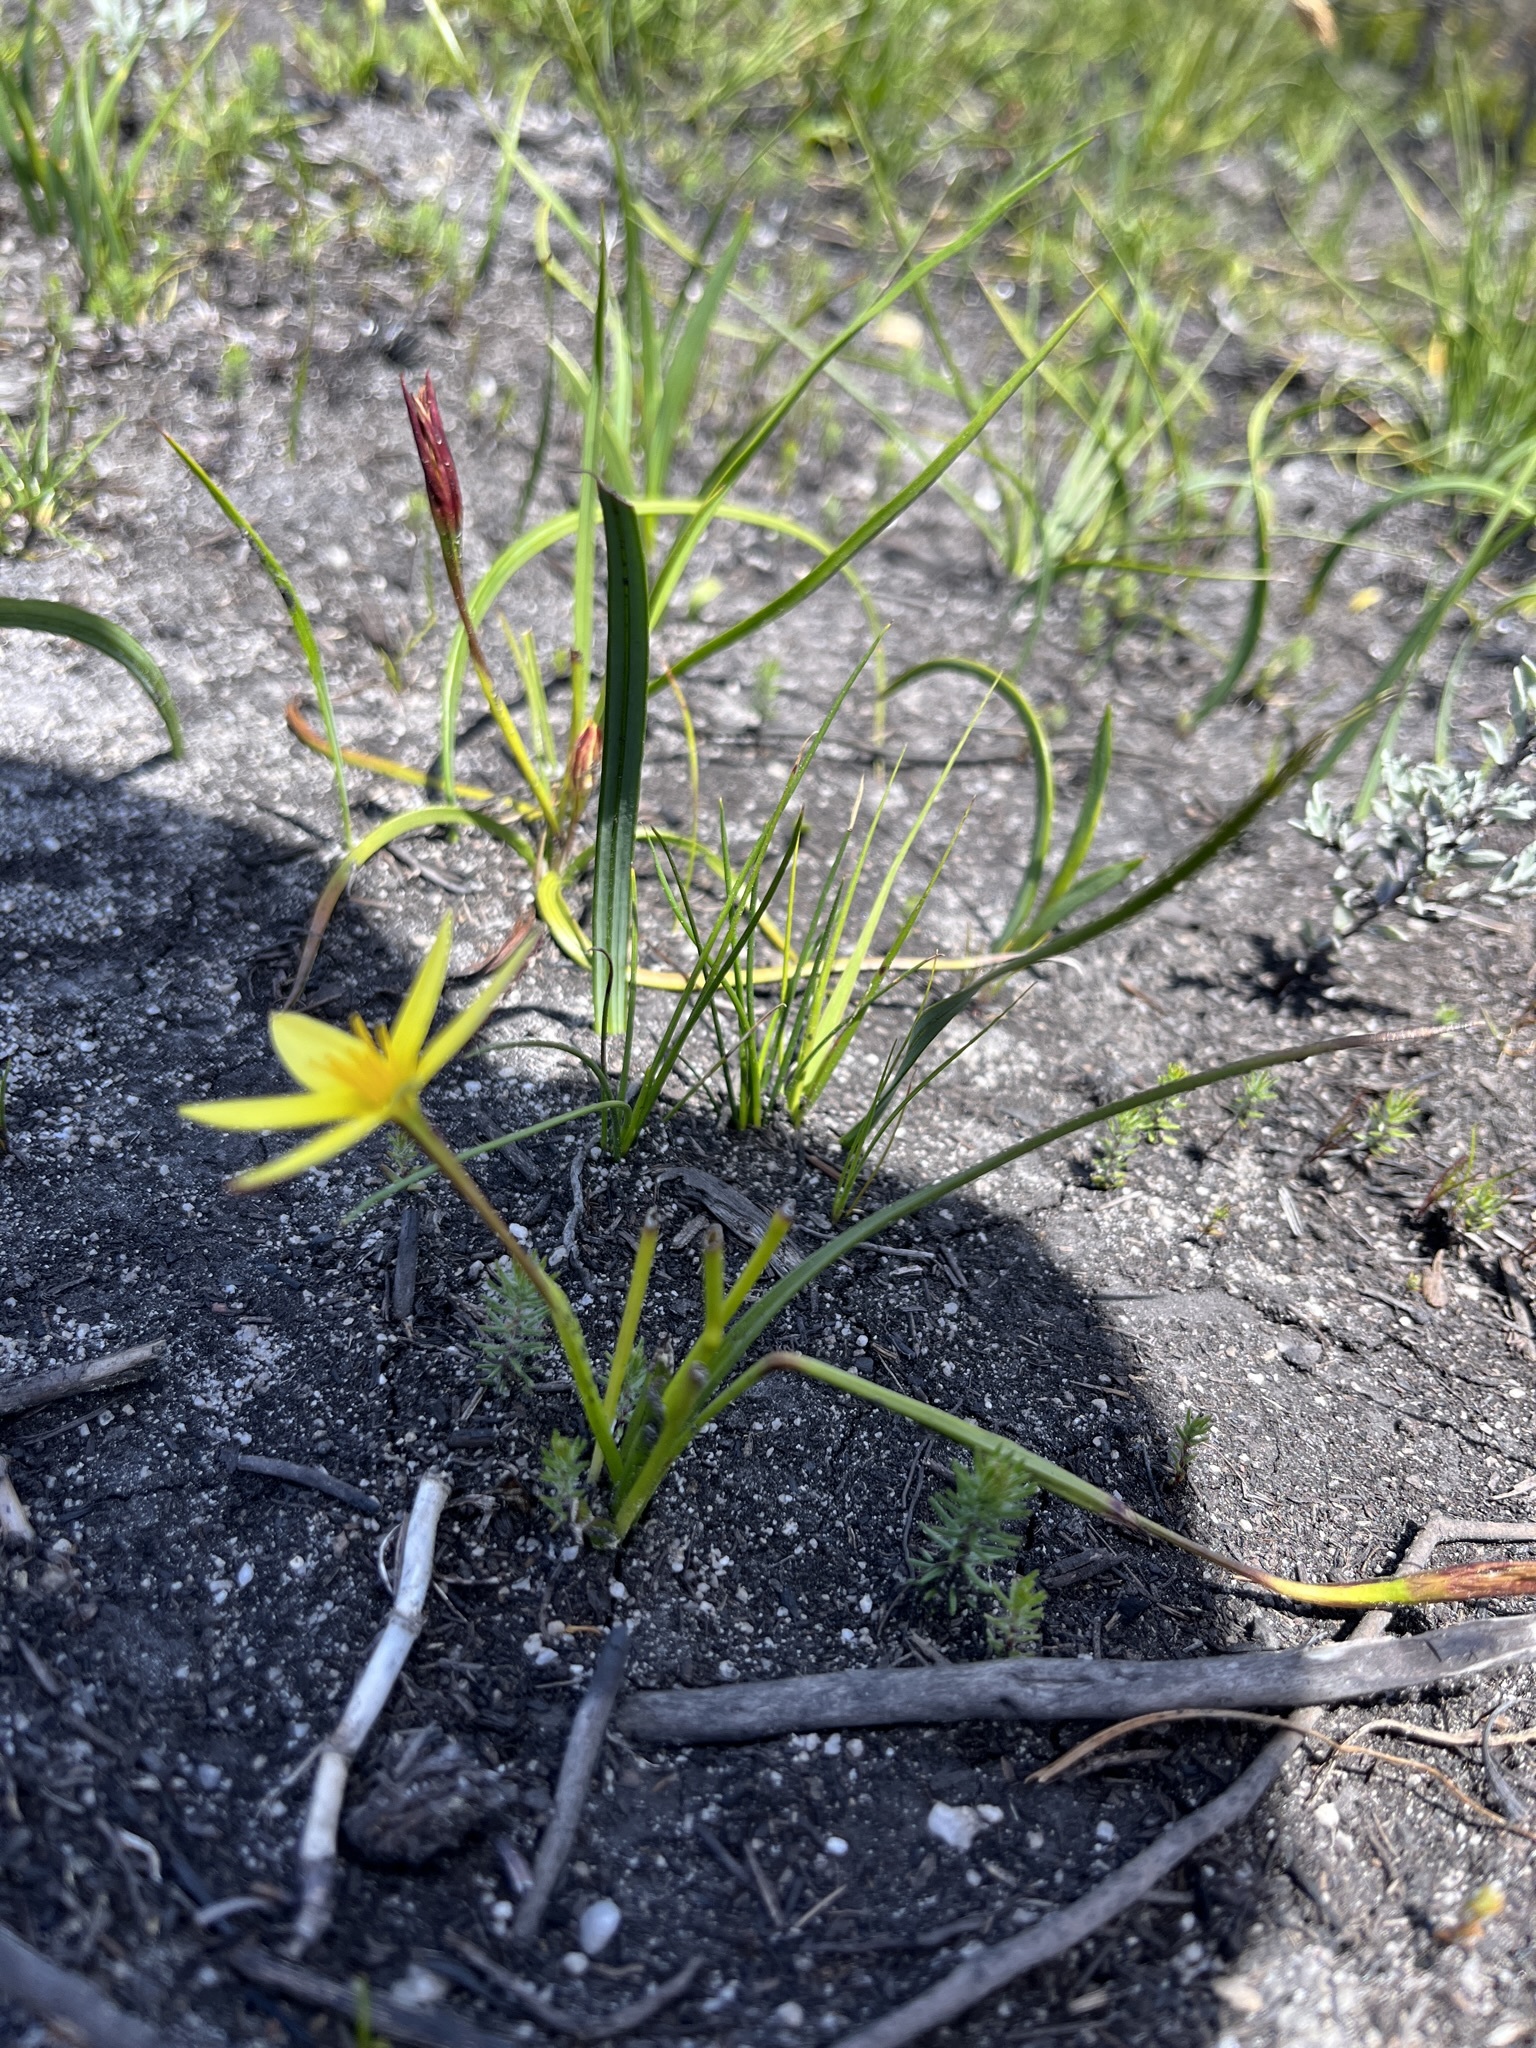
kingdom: Plantae
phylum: Tracheophyta
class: Liliopsida
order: Asparagales
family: Hypoxidaceae
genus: Pauridia
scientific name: Pauridia flaccida
